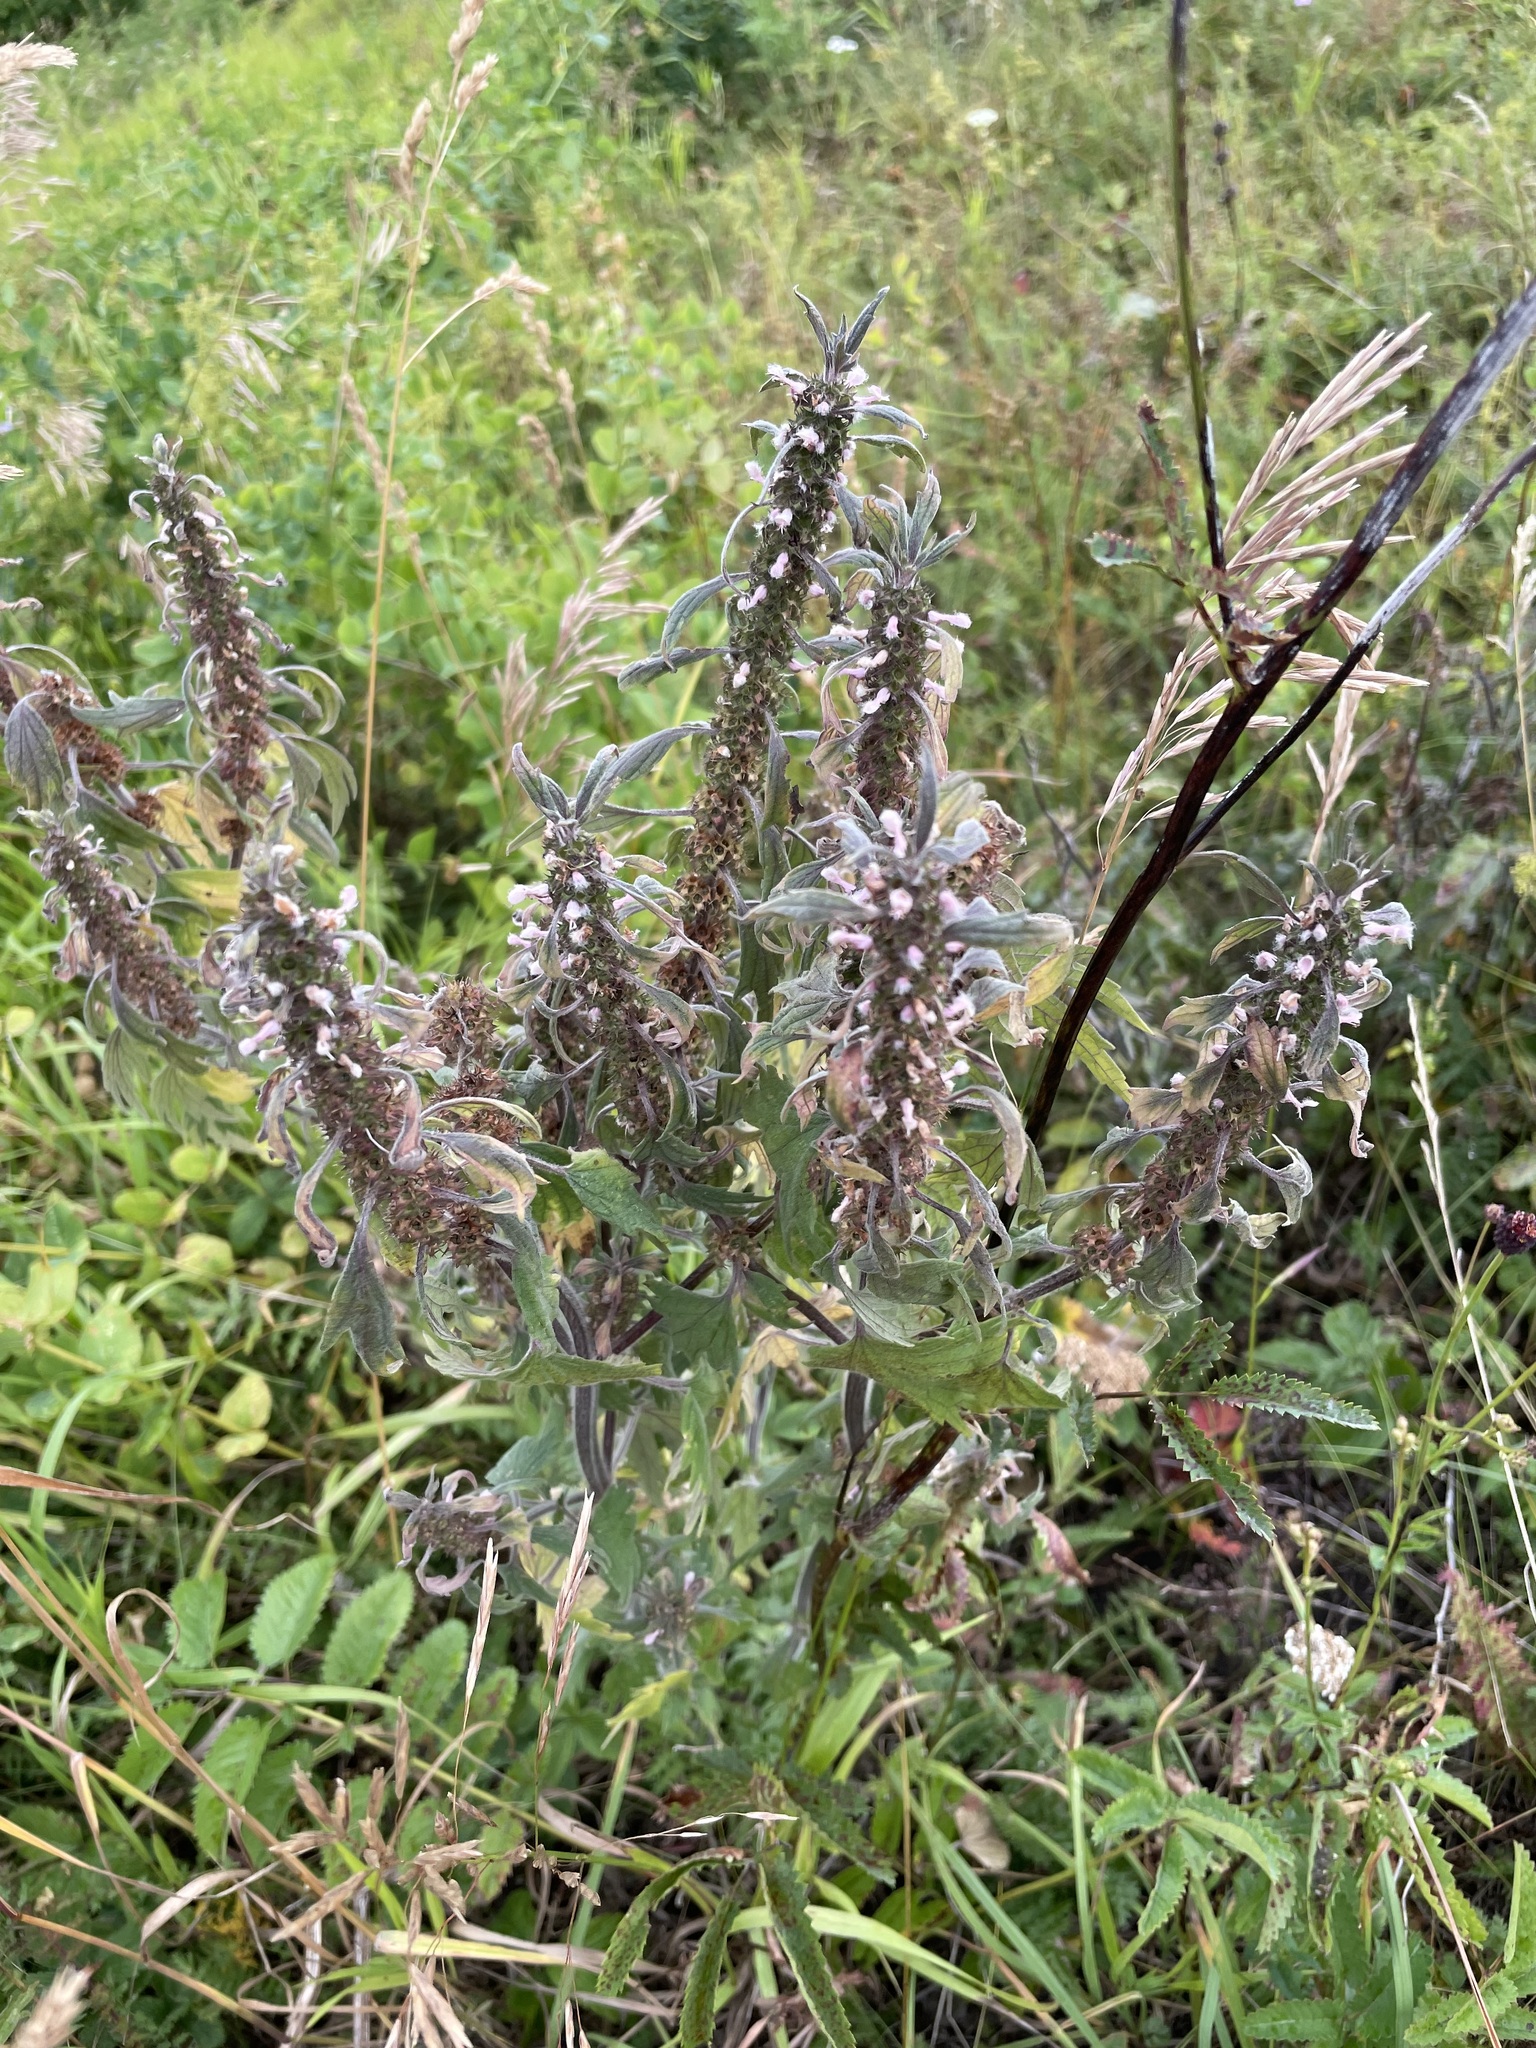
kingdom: Plantae
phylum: Tracheophyta
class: Magnoliopsida
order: Lamiales
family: Lamiaceae
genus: Leonurus
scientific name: Leonurus quinquelobatus
